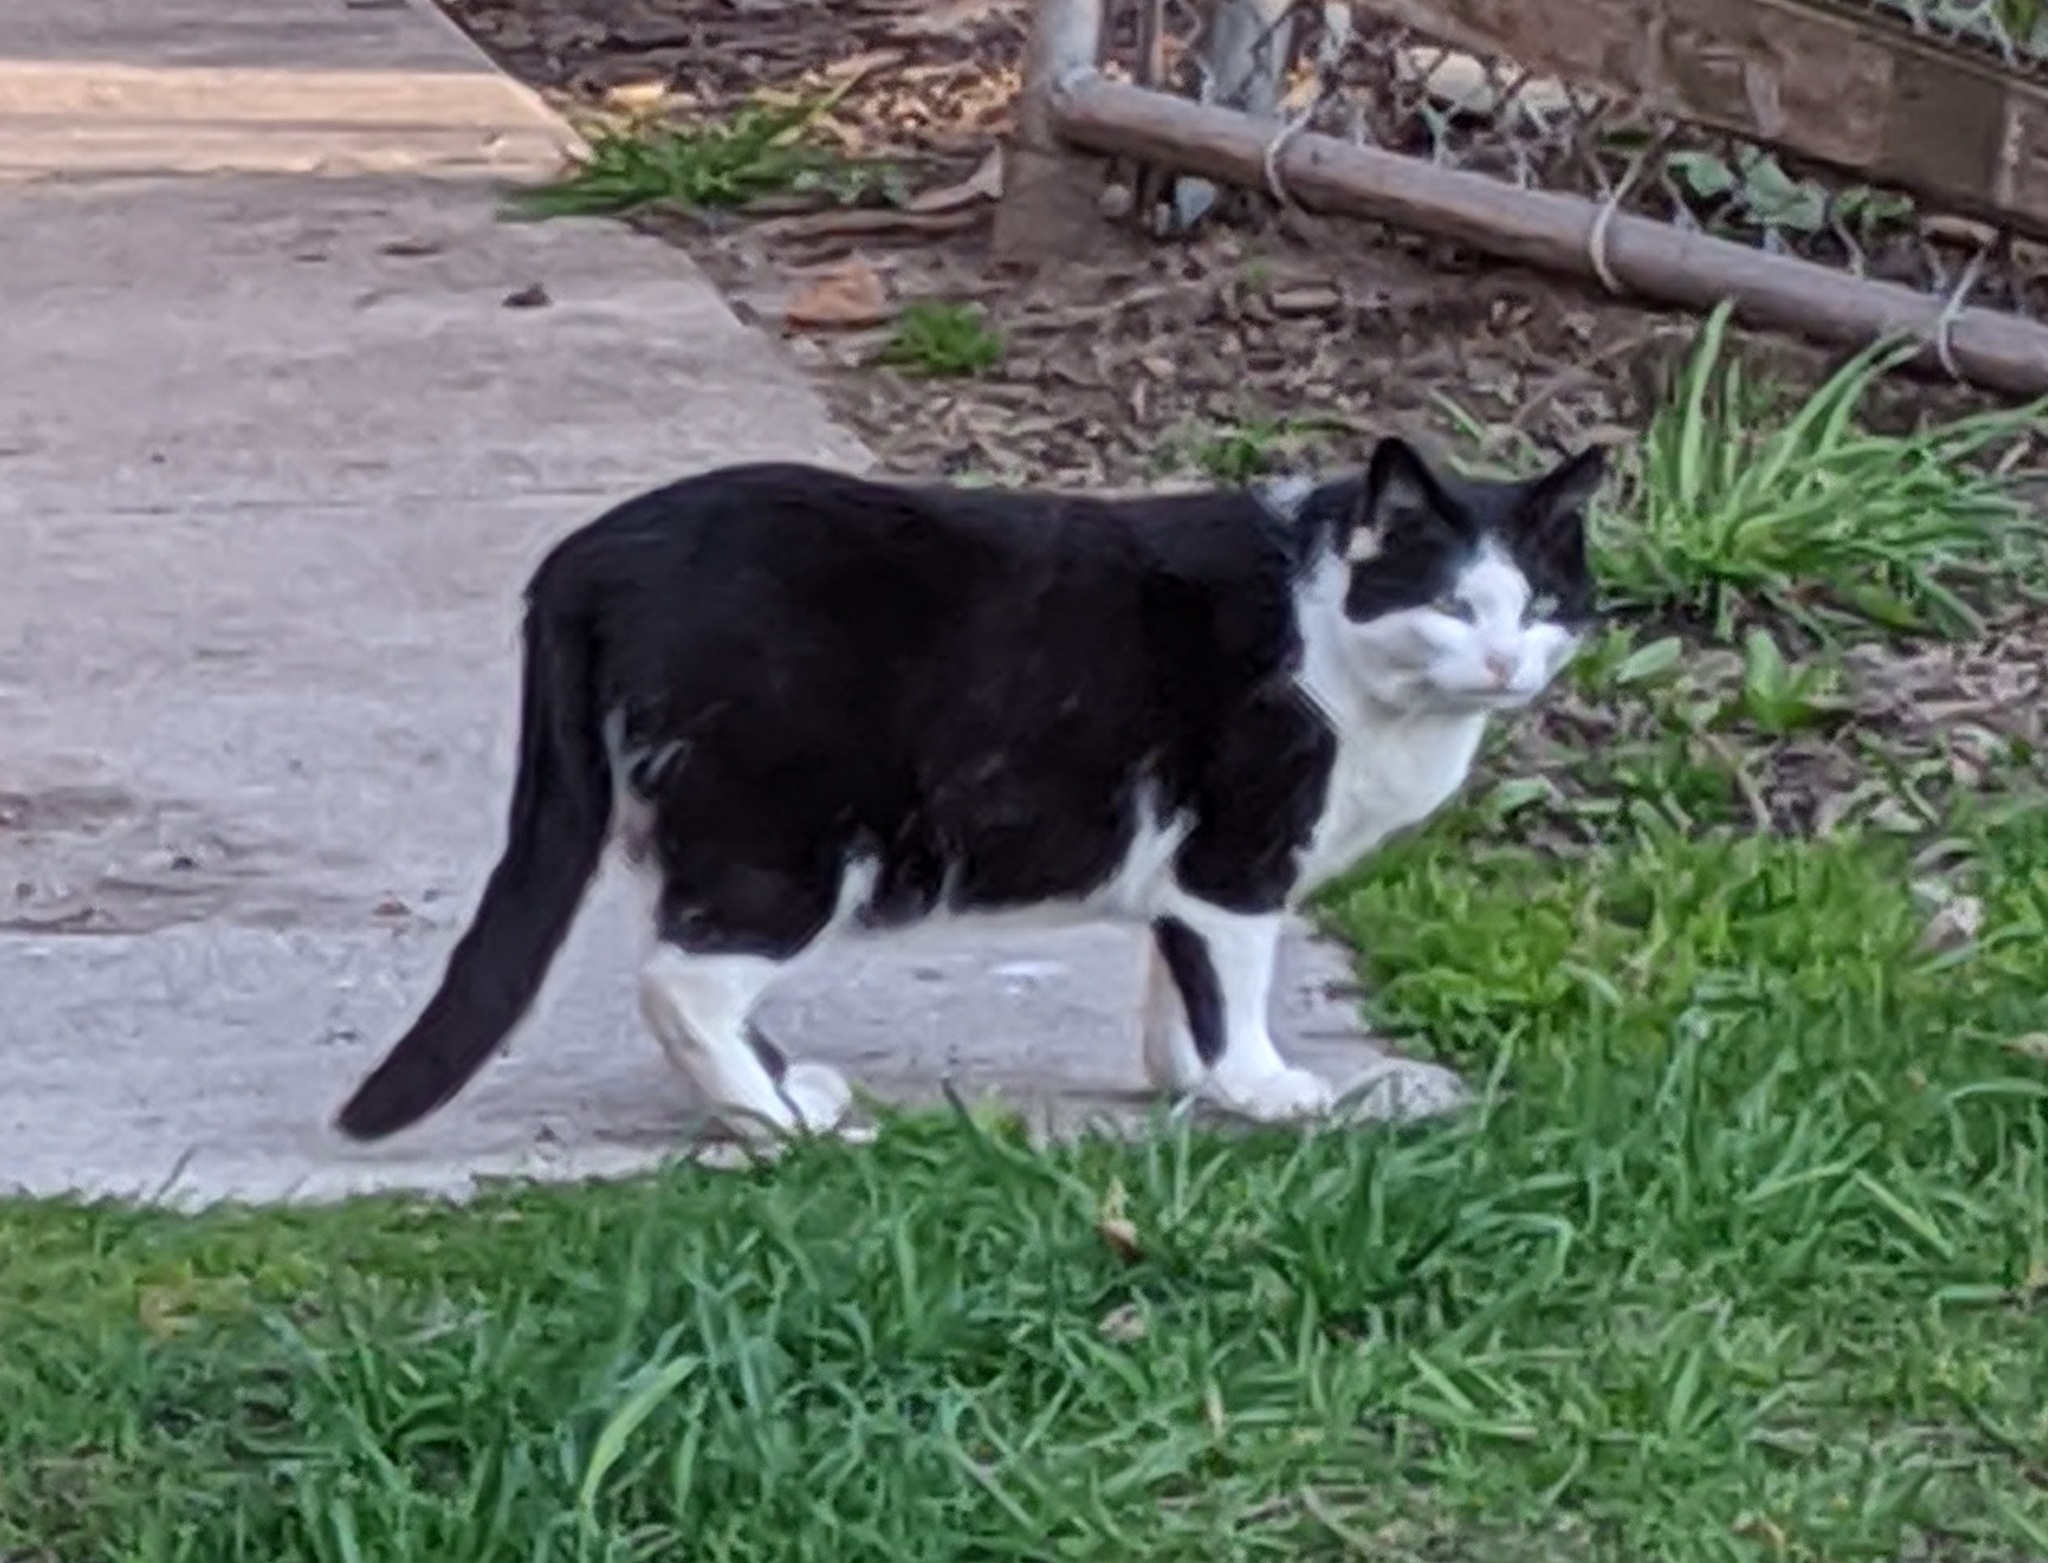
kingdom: Animalia
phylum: Chordata
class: Mammalia
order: Carnivora
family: Felidae
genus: Felis
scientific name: Felis catus
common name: Domestic cat
